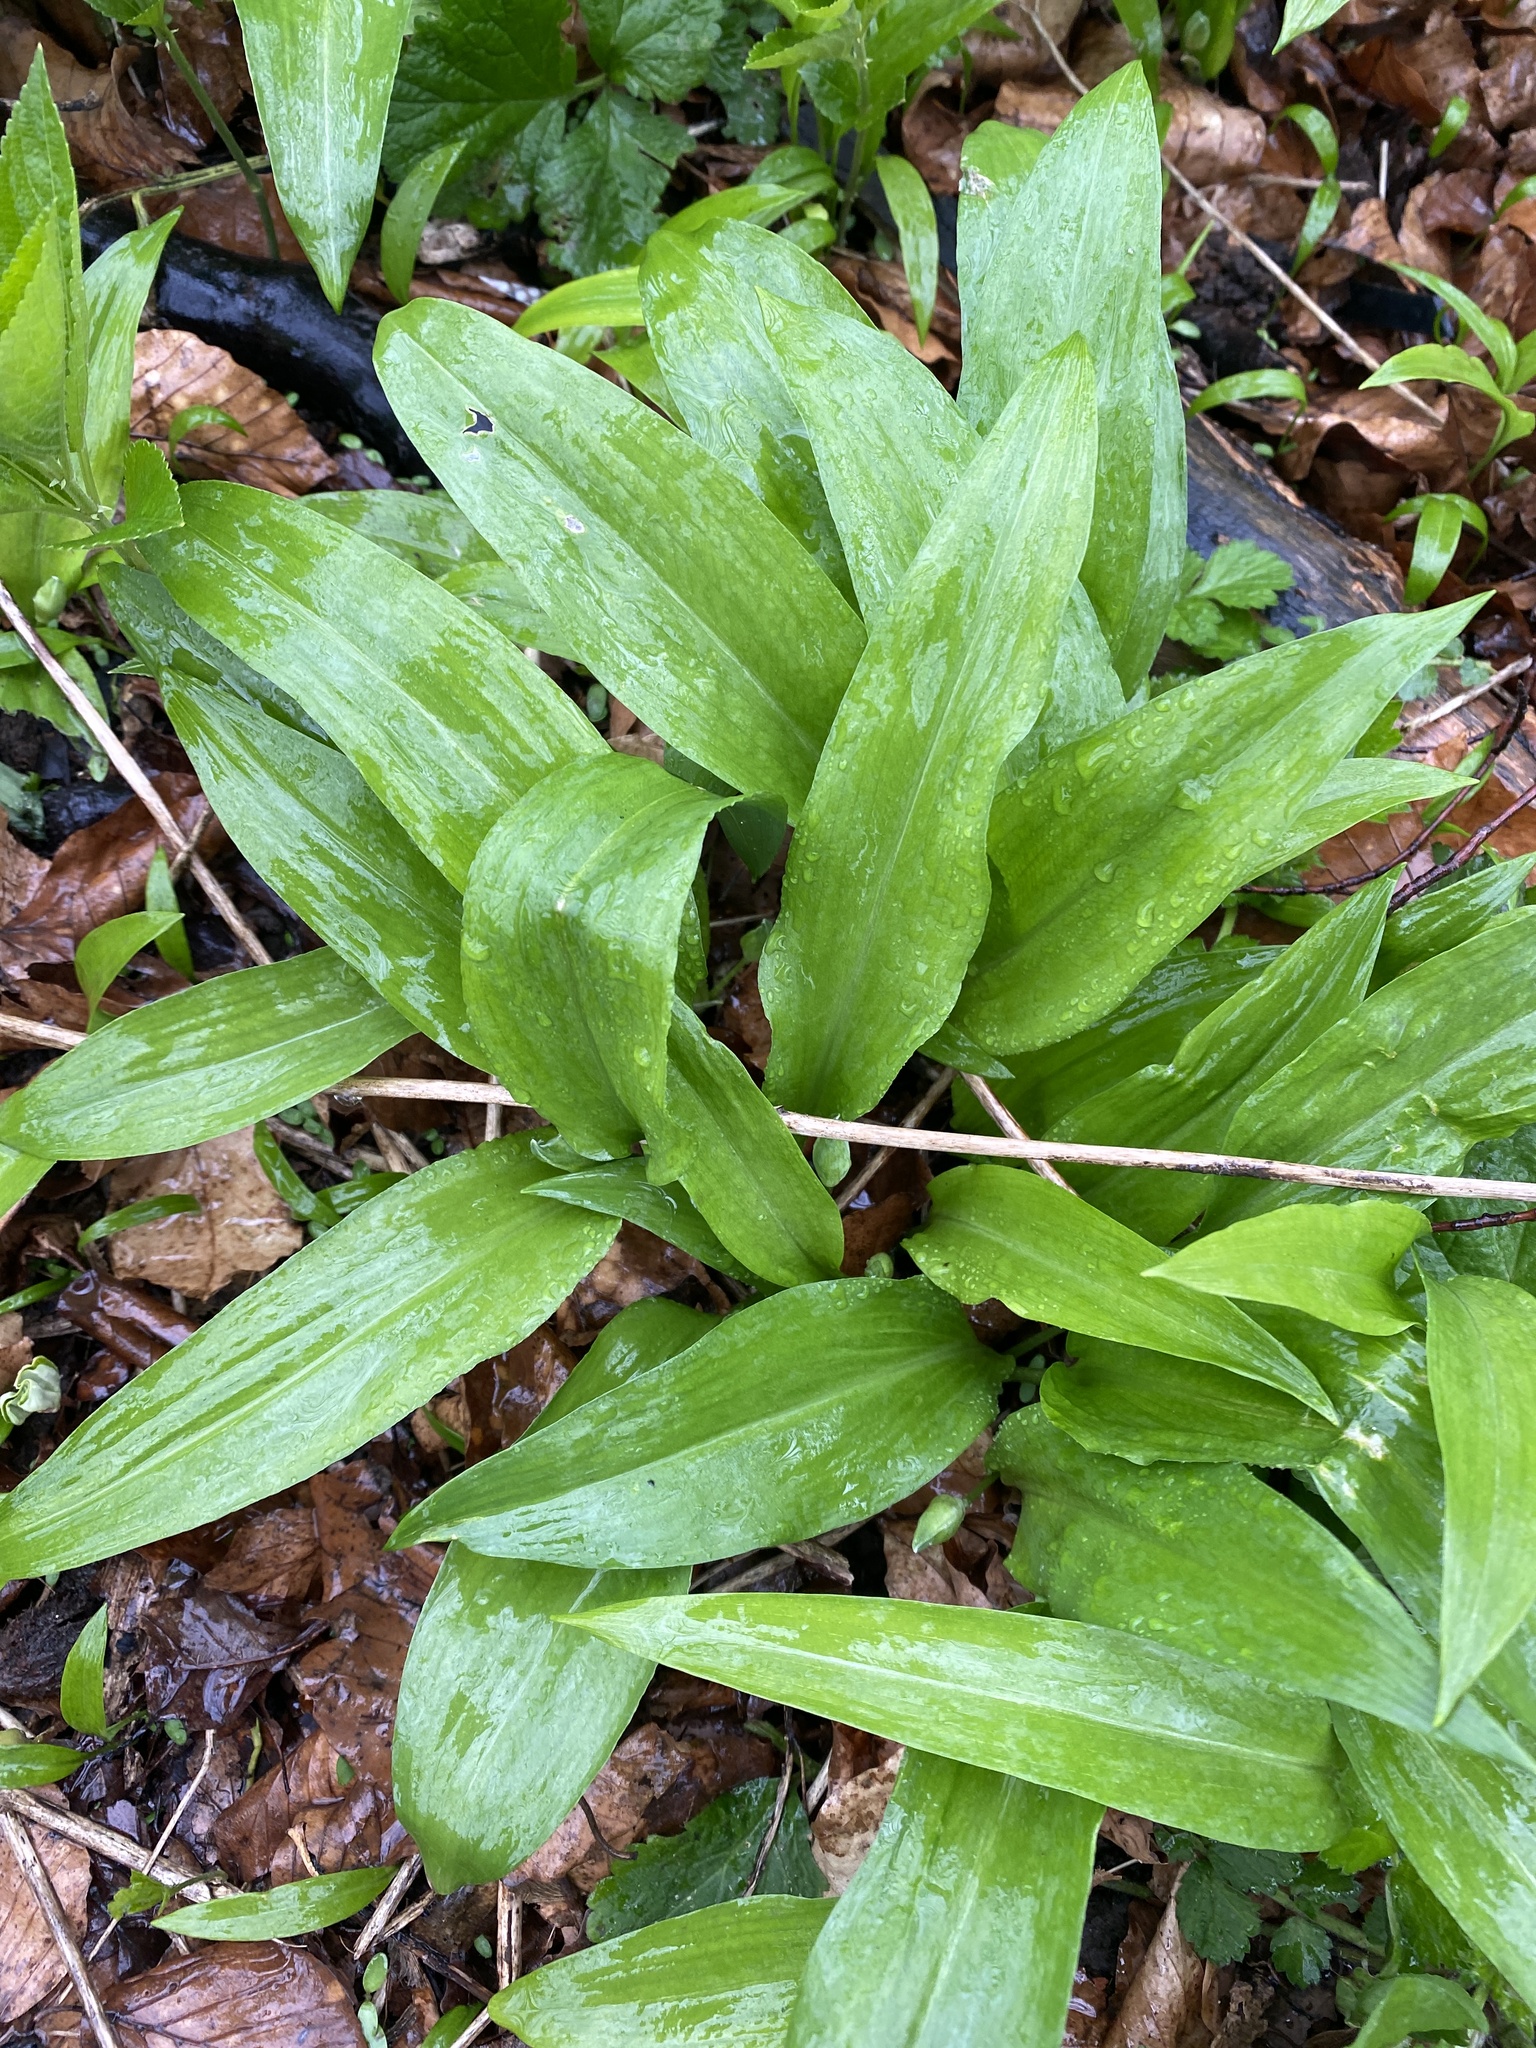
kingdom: Plantae
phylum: Tracheophyta
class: Liliopsida
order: Asparagales
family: Amaryllidaceae
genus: Allium
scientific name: Allium ursinum
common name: Ramsons
